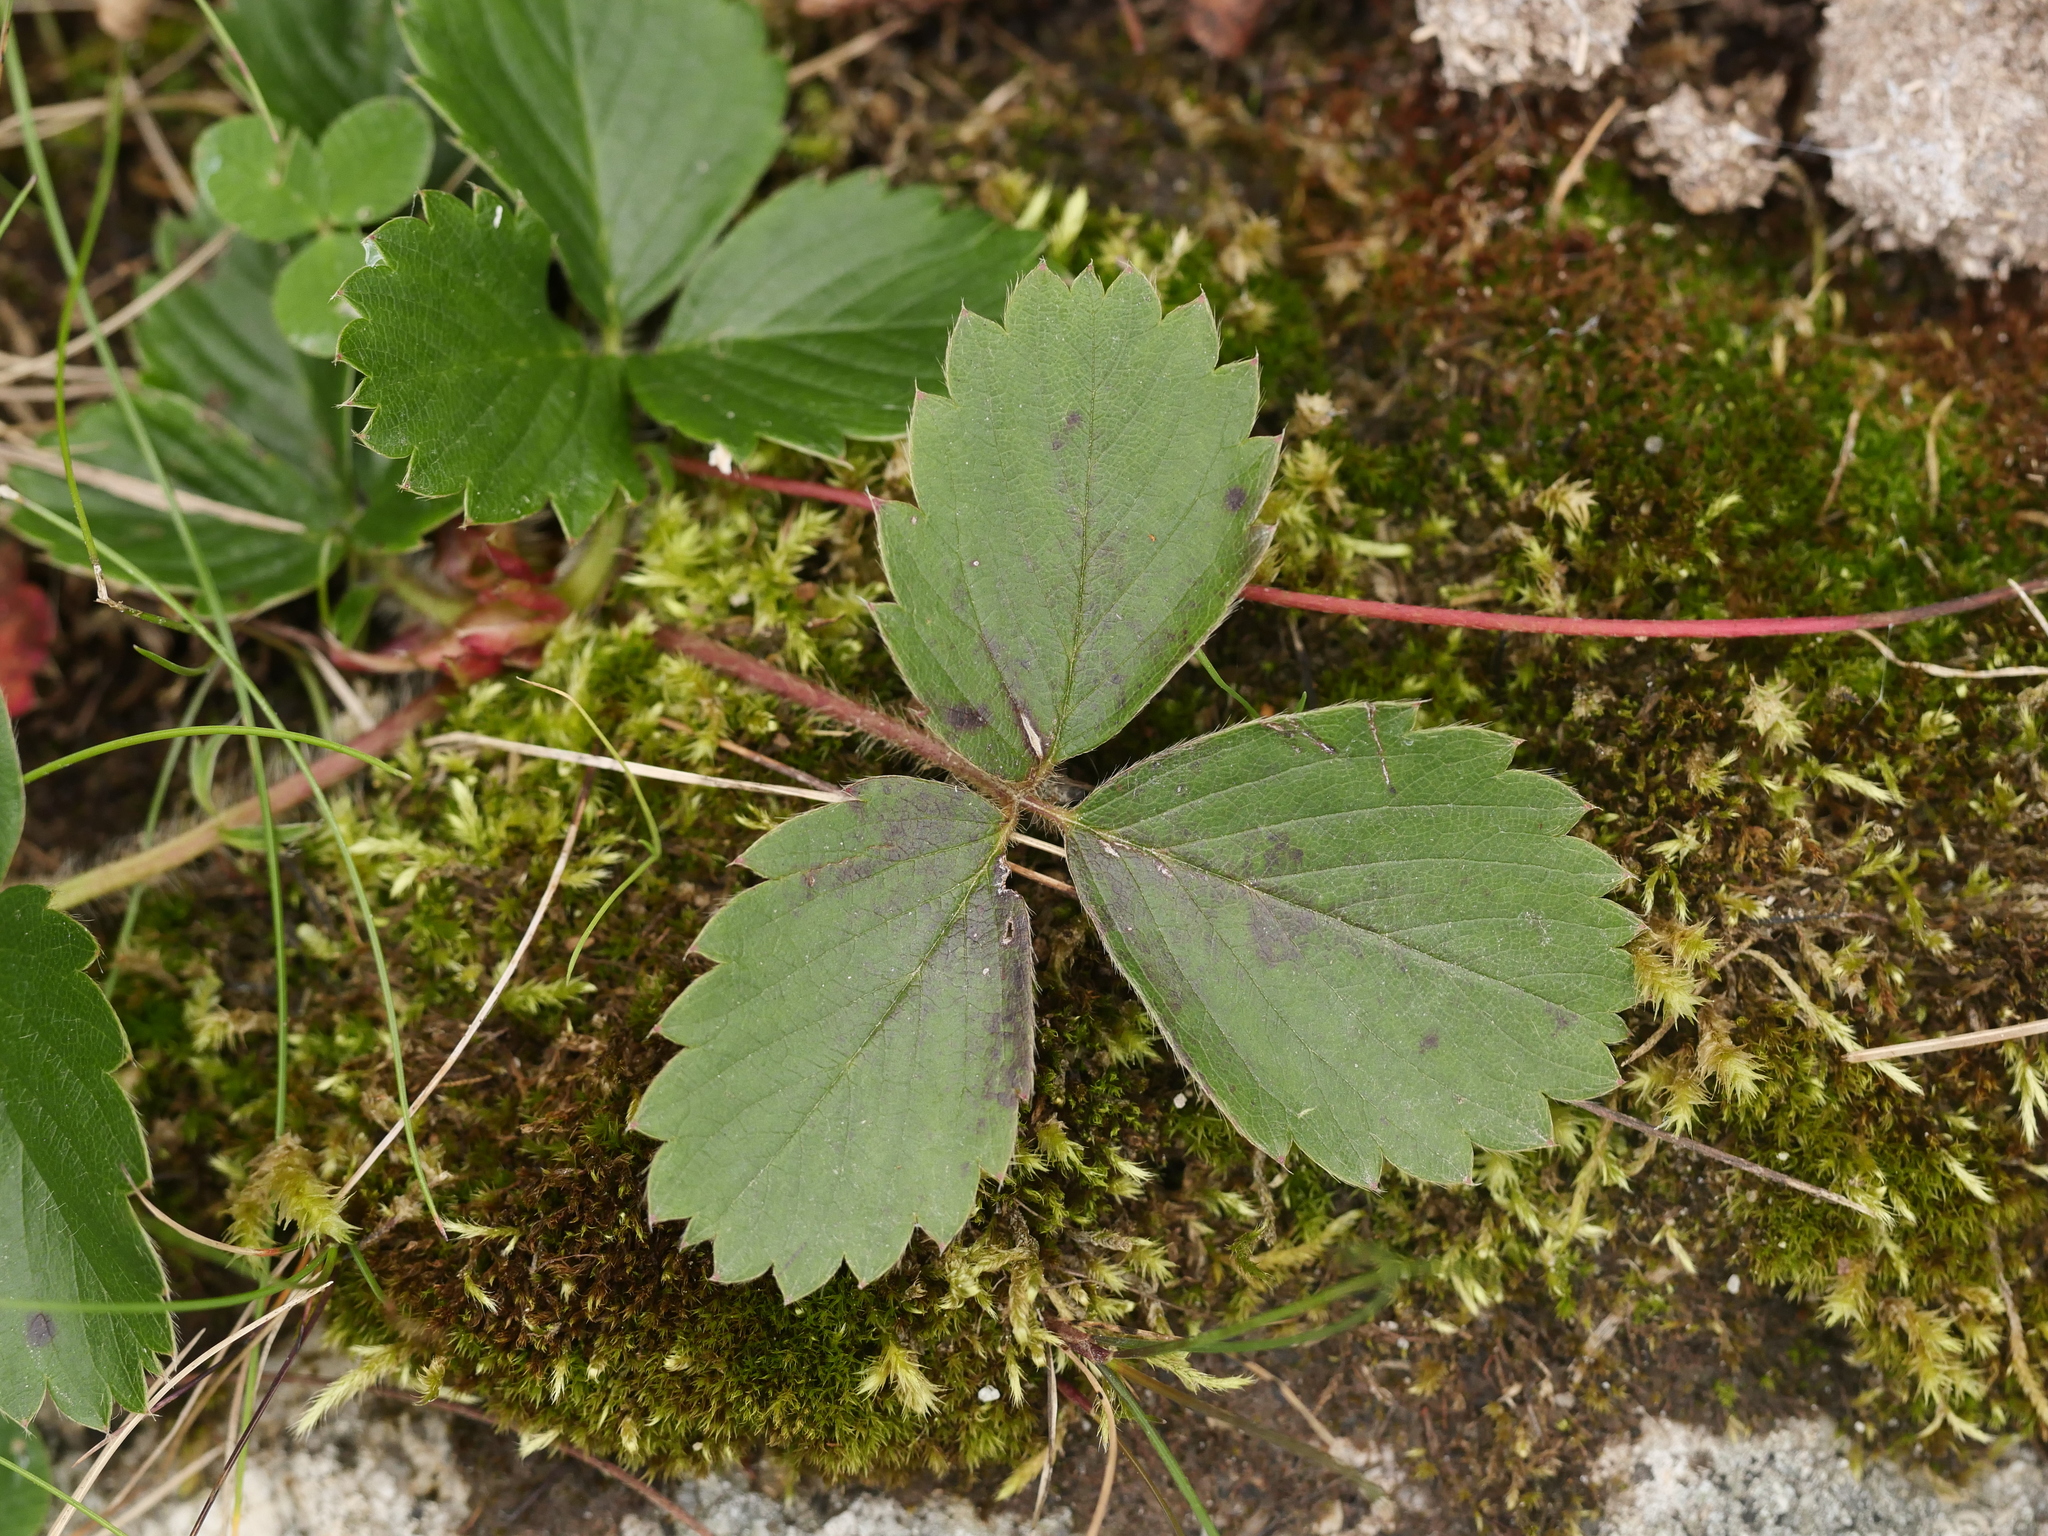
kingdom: Plantae
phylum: Tracheophyta
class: Magnoliopsida
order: Rosales
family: Rosaceae
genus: Fragaria
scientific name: Fragaria virginiana
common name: Thickleaved wild strawberry
